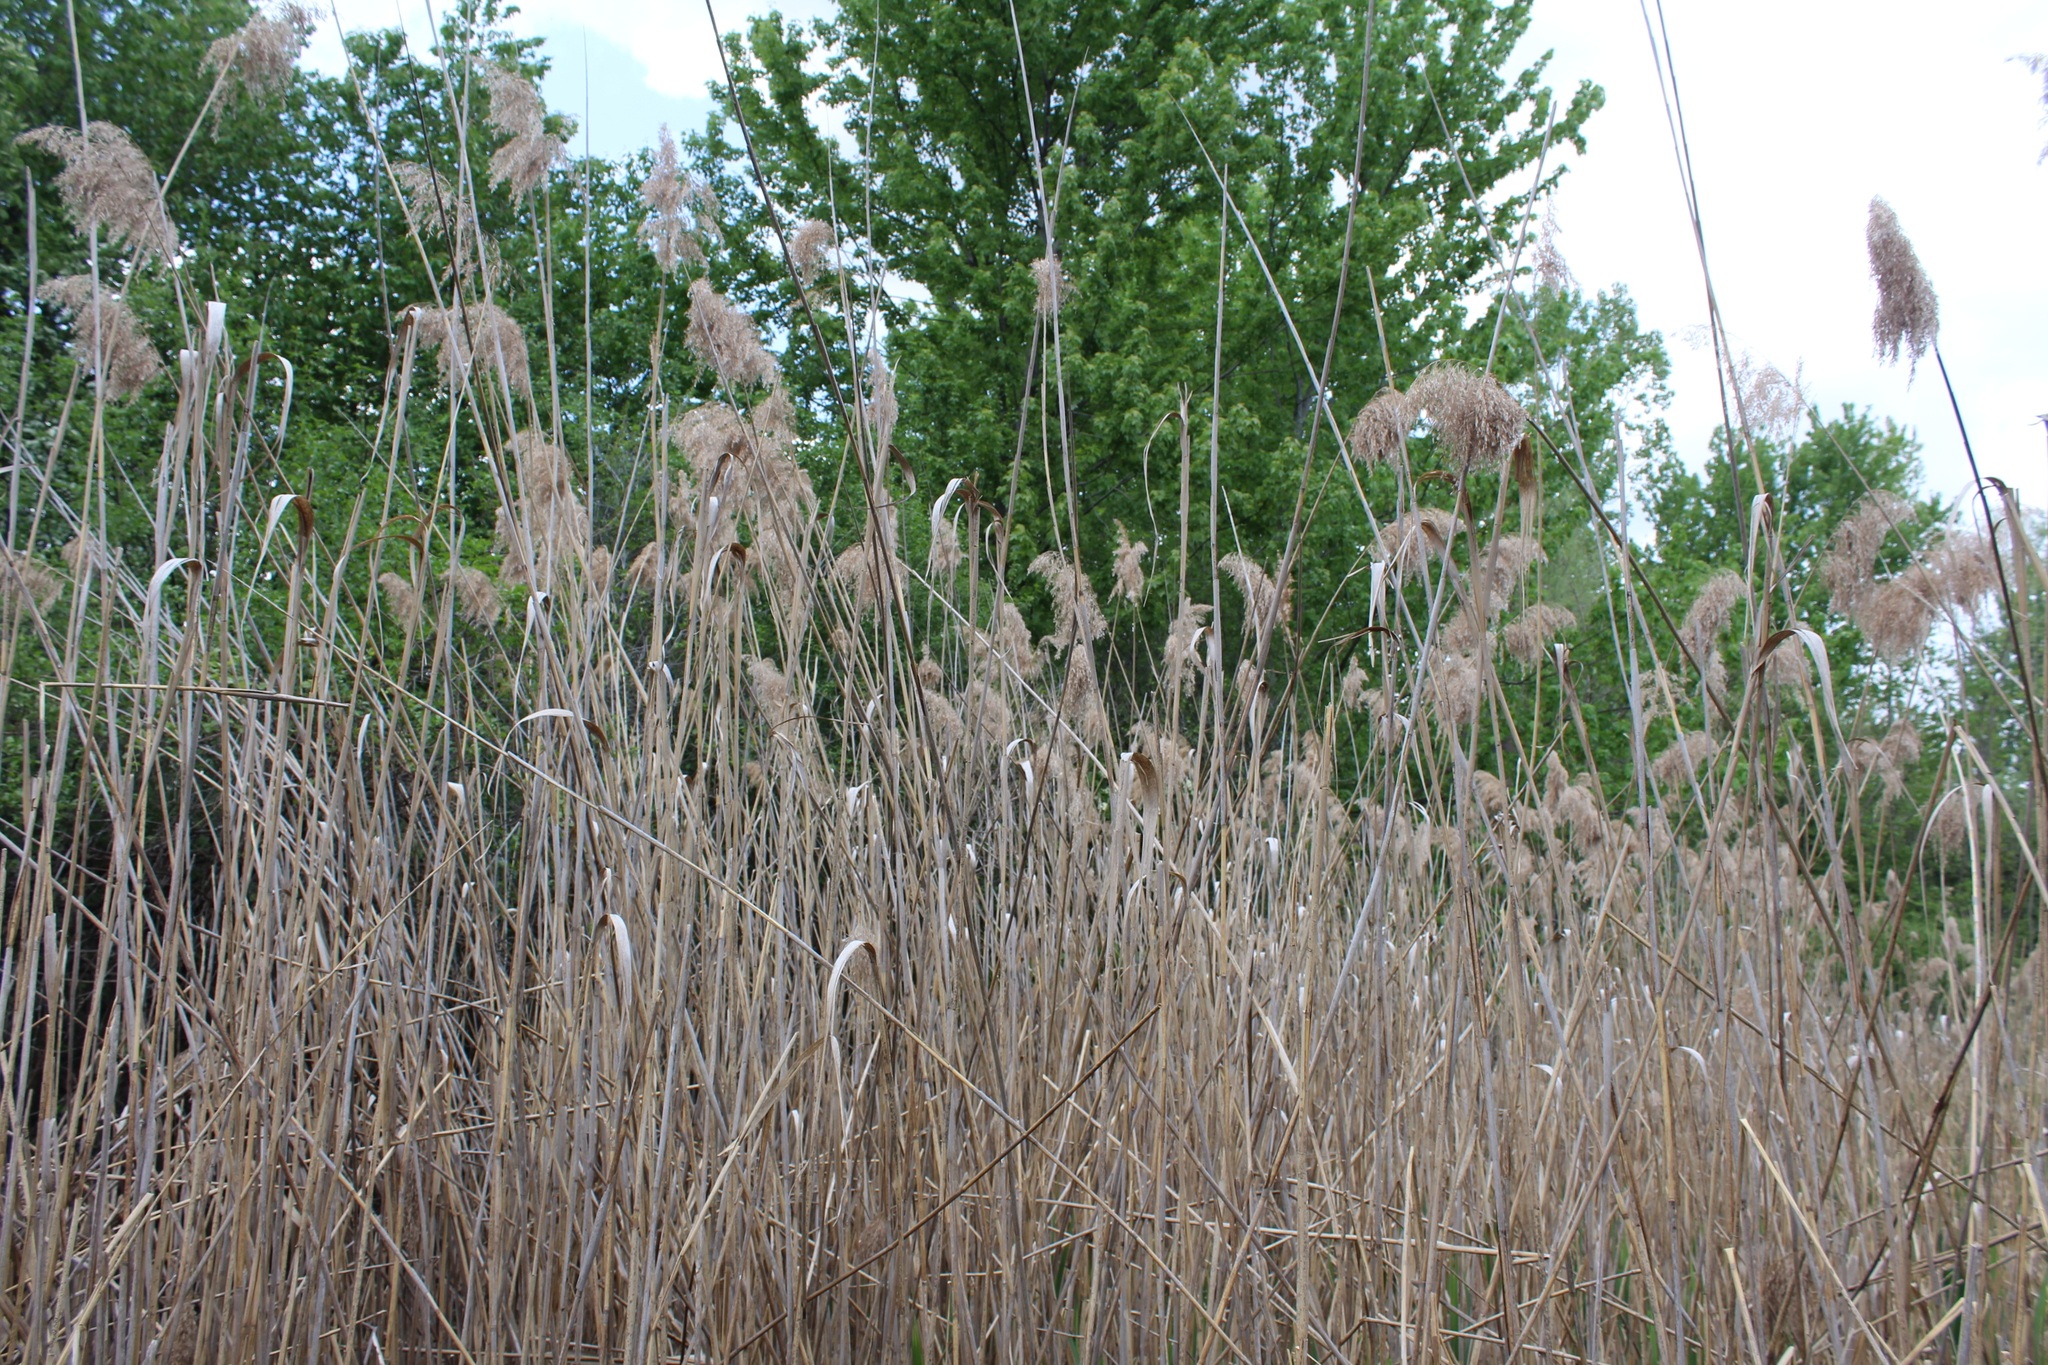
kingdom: Plantae
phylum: Tracheophyta
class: Liliopsida
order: Poales
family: Poaceae
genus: Phragmites
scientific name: Phragmites australis
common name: Common reed
